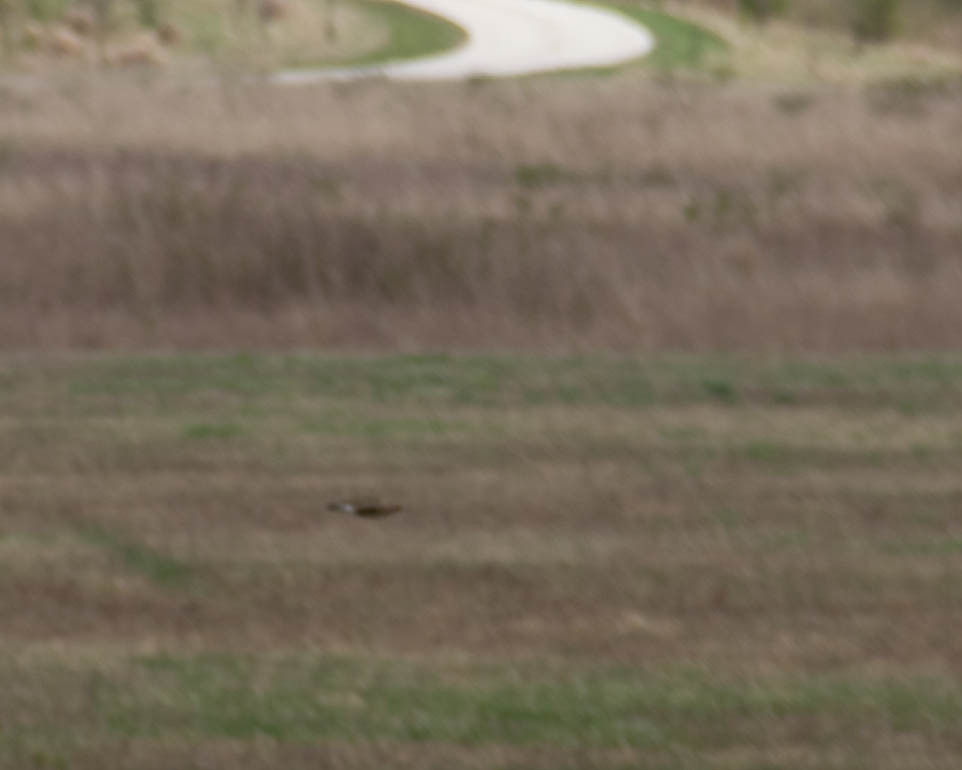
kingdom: Animalia
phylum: Chordata
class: Aves
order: Piciformes
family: Picidae
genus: Colaptes
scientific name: Colaptes auratus
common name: Northern flicker
